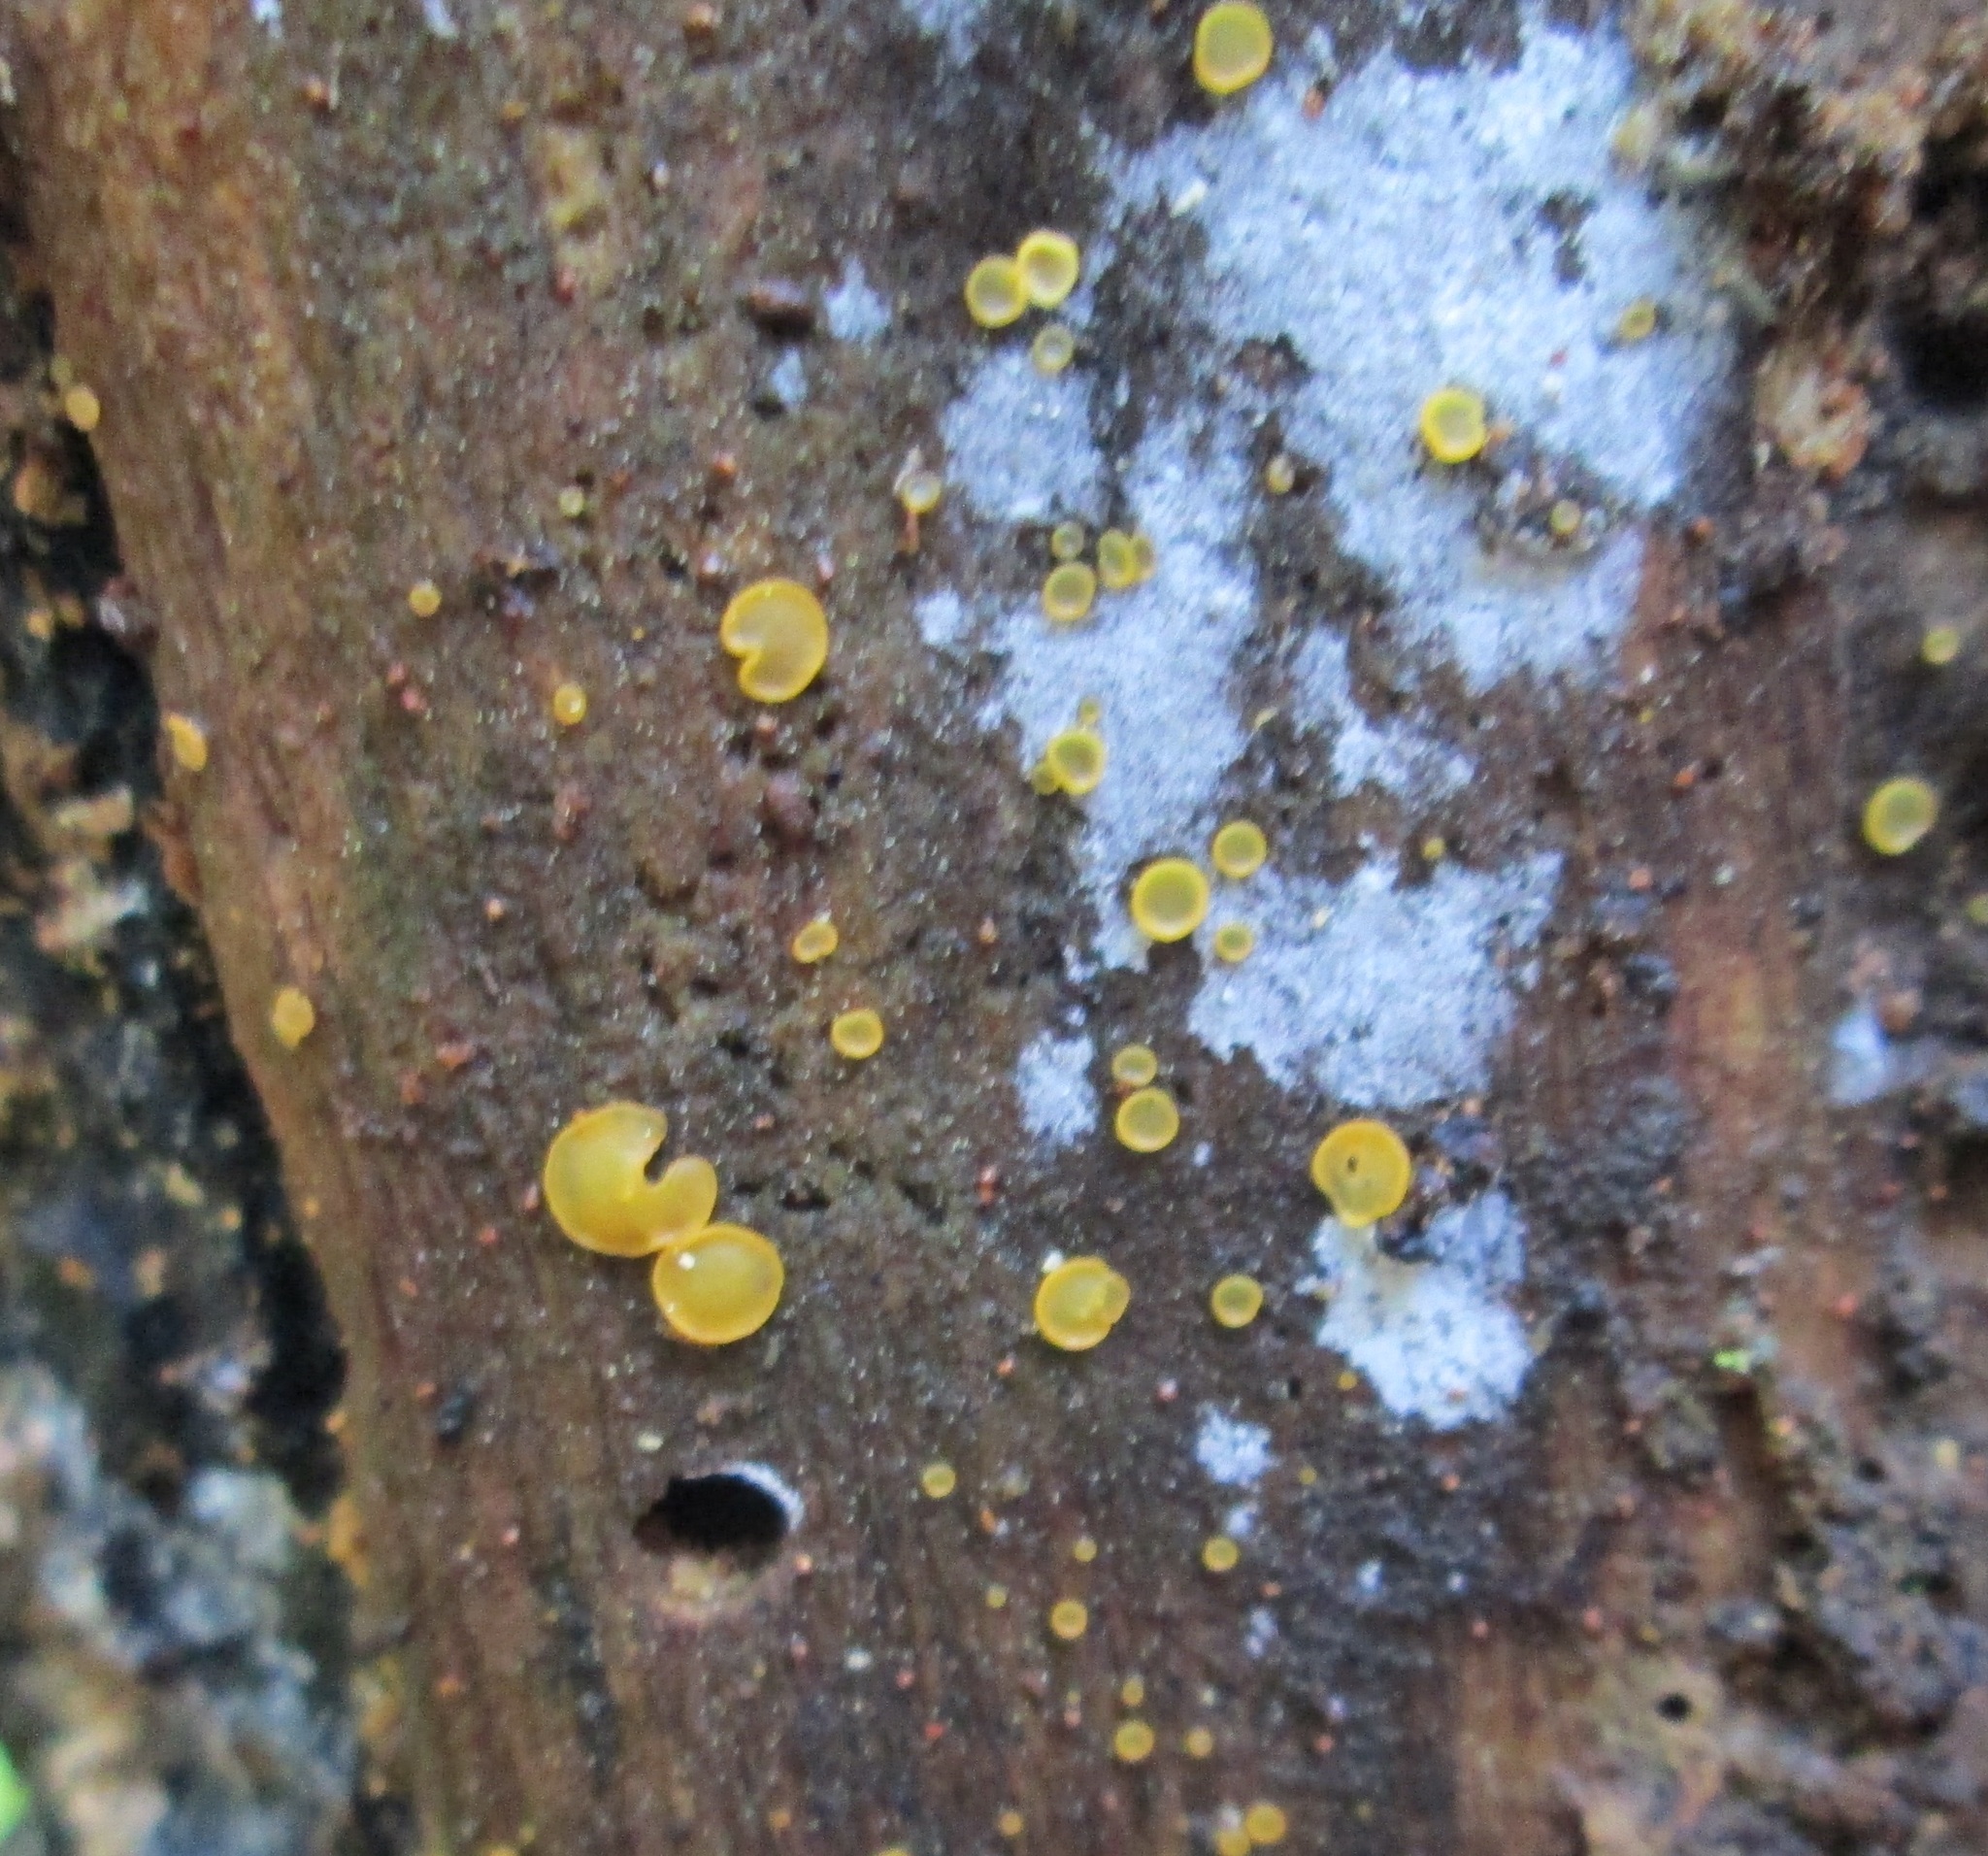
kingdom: Fungi
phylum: Ascomycota
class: Orbiliomycetes
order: Orbiliales
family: Orbiliaceae
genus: Orbilia
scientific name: Orbilia
